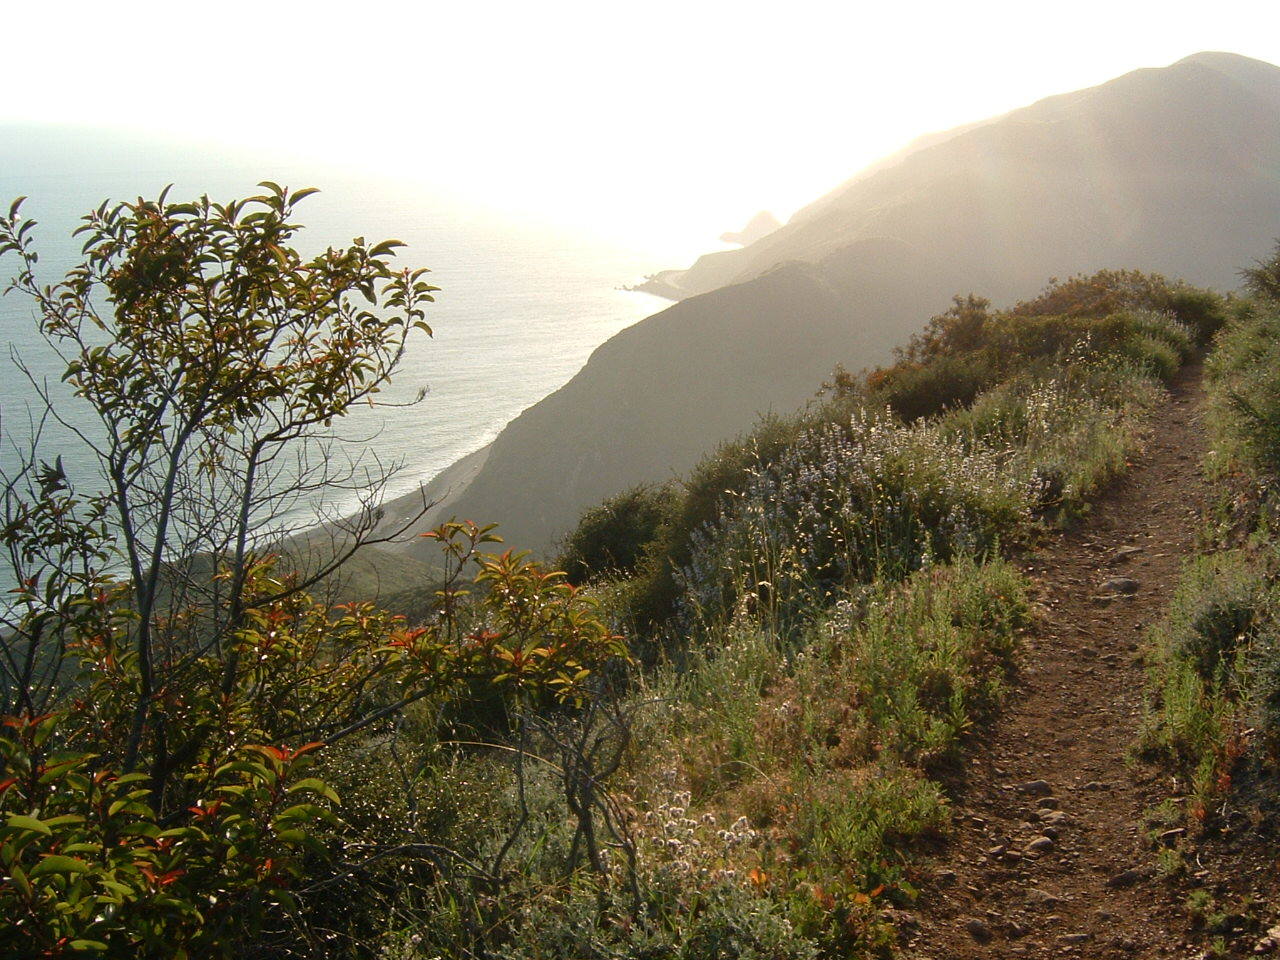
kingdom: Plantae
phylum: Tracheophyta
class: Magnoliopsida
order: Sapindales
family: Anacardiaceae
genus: Malosma
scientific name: Malosma laurina
